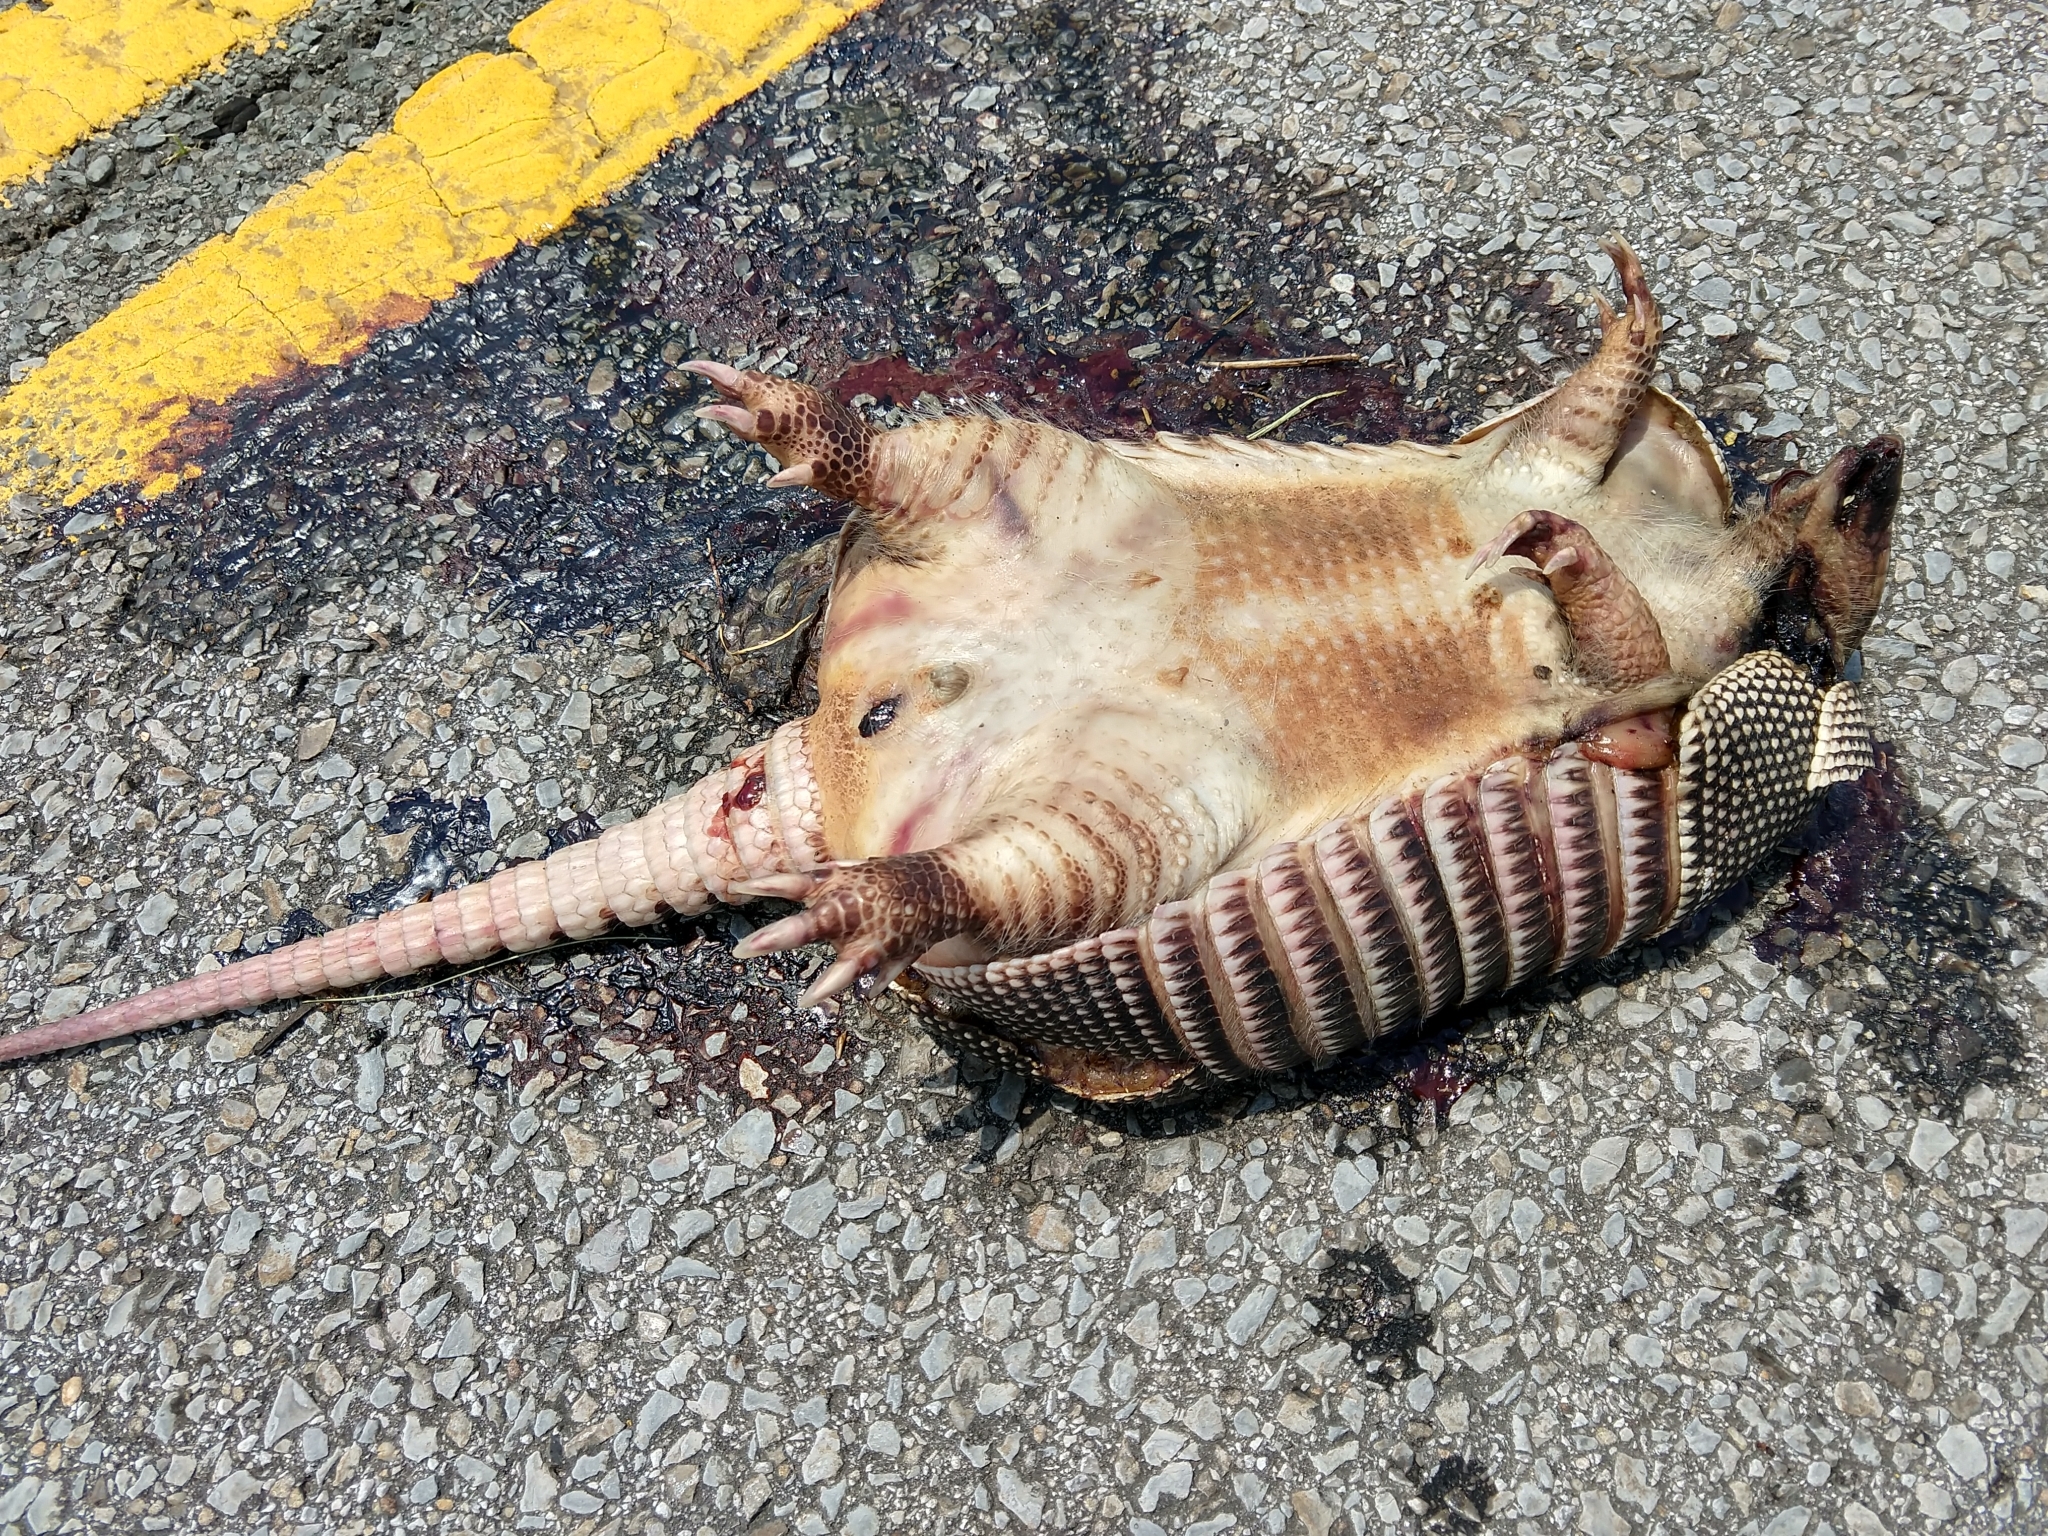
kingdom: Animalia
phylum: Chordata
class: Mammalia
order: Cingulata
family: Dasypodidae
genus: Dasypus
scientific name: Dasypus novemcinctus
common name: Nine-banded armadillo
